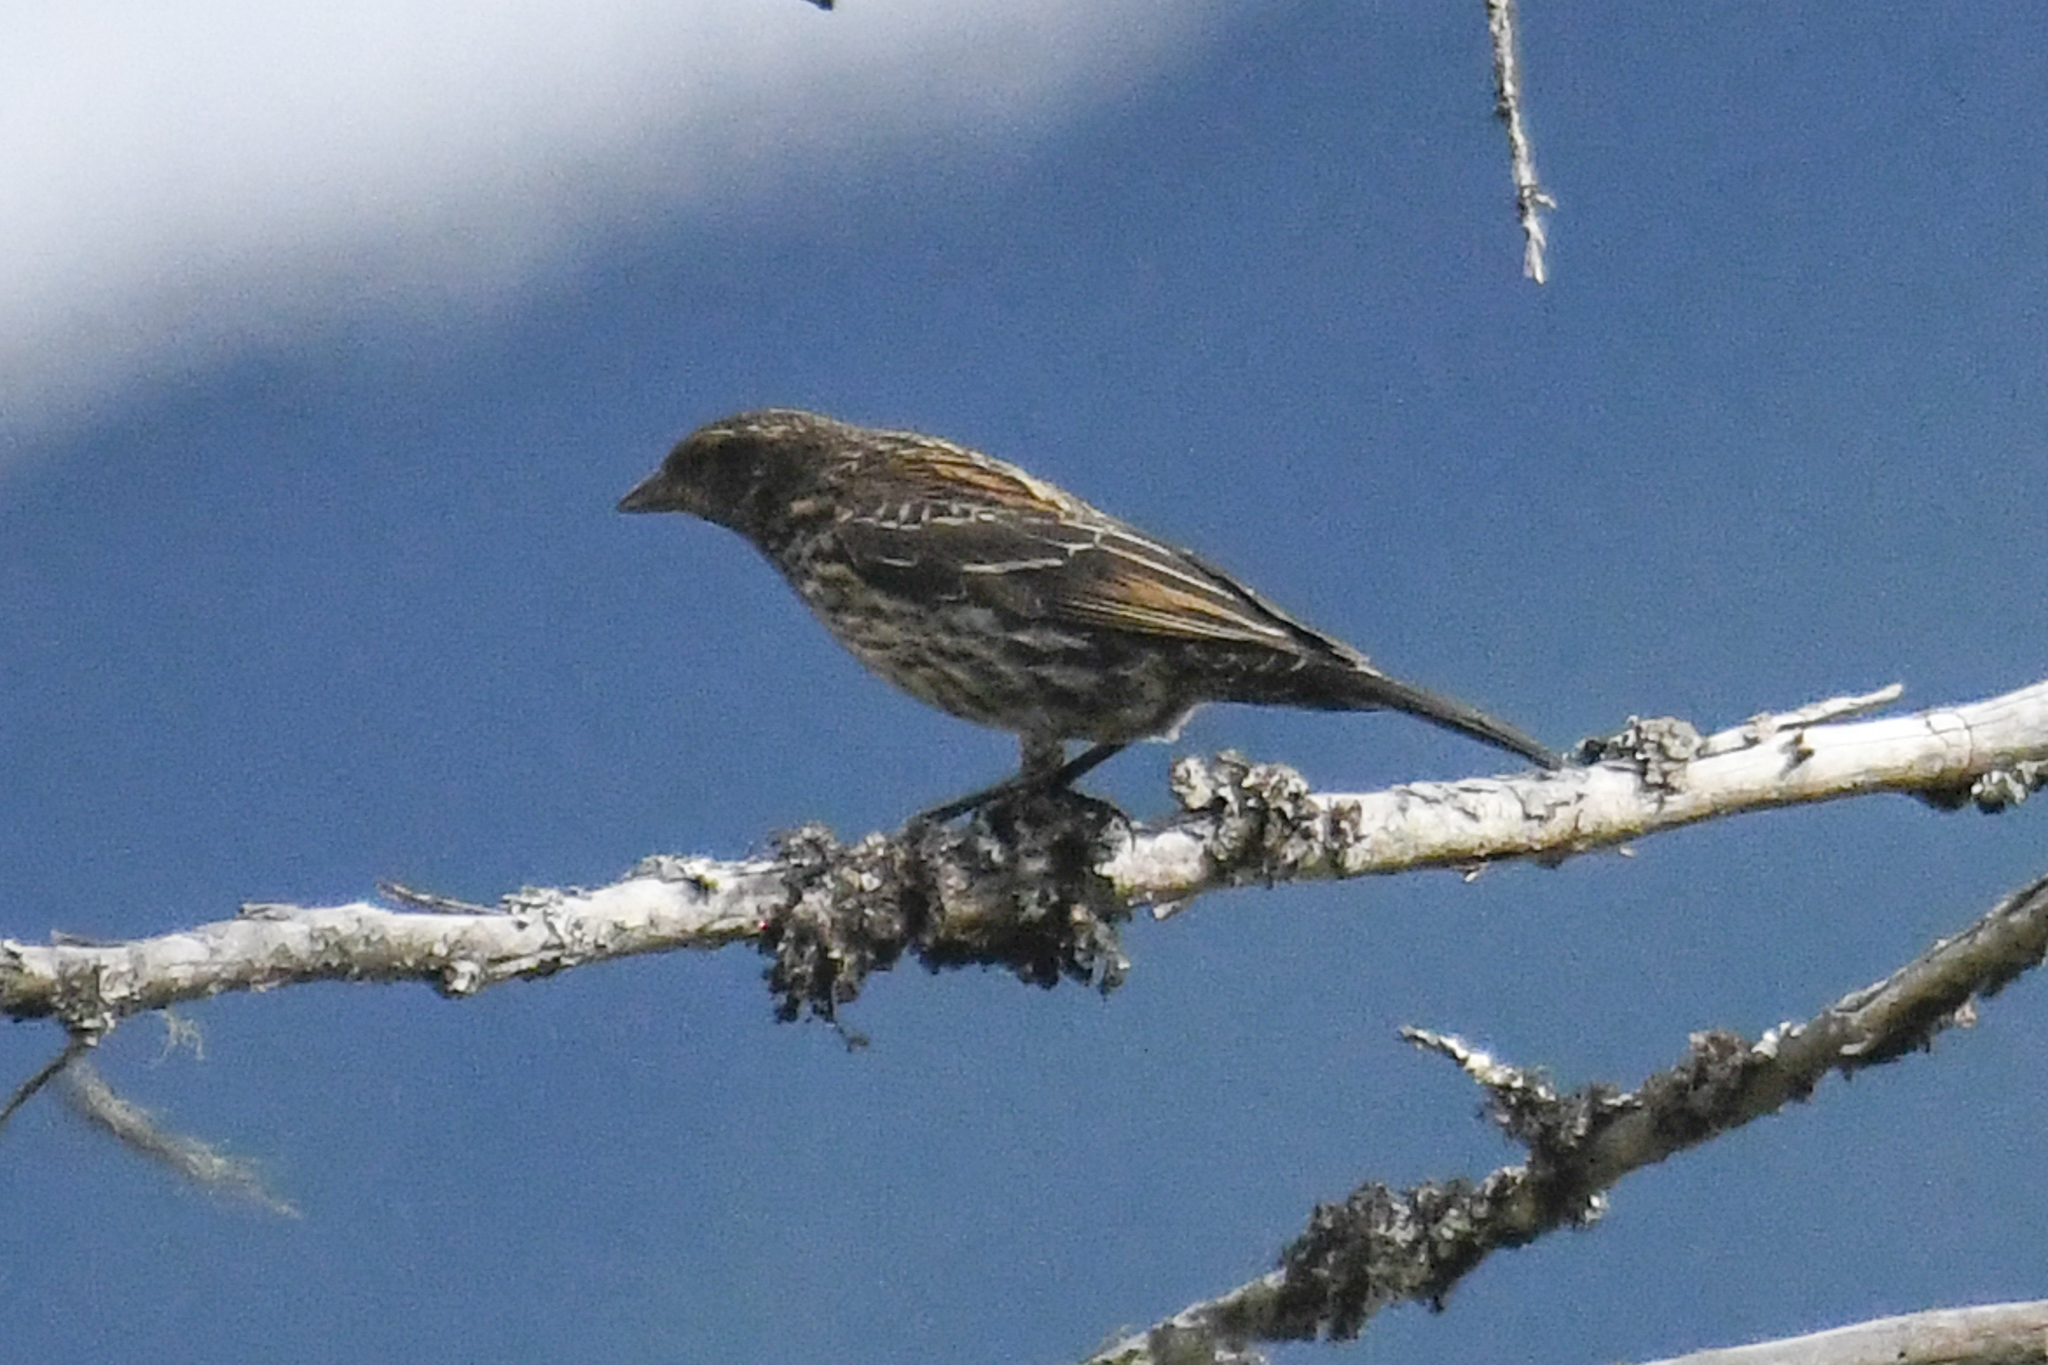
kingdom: Animalia
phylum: Chordata
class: Aves
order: Passeriformes
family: Icteridae
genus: Agelaius
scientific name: Agelaius phoeniceus
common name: Red-winged blackbird
